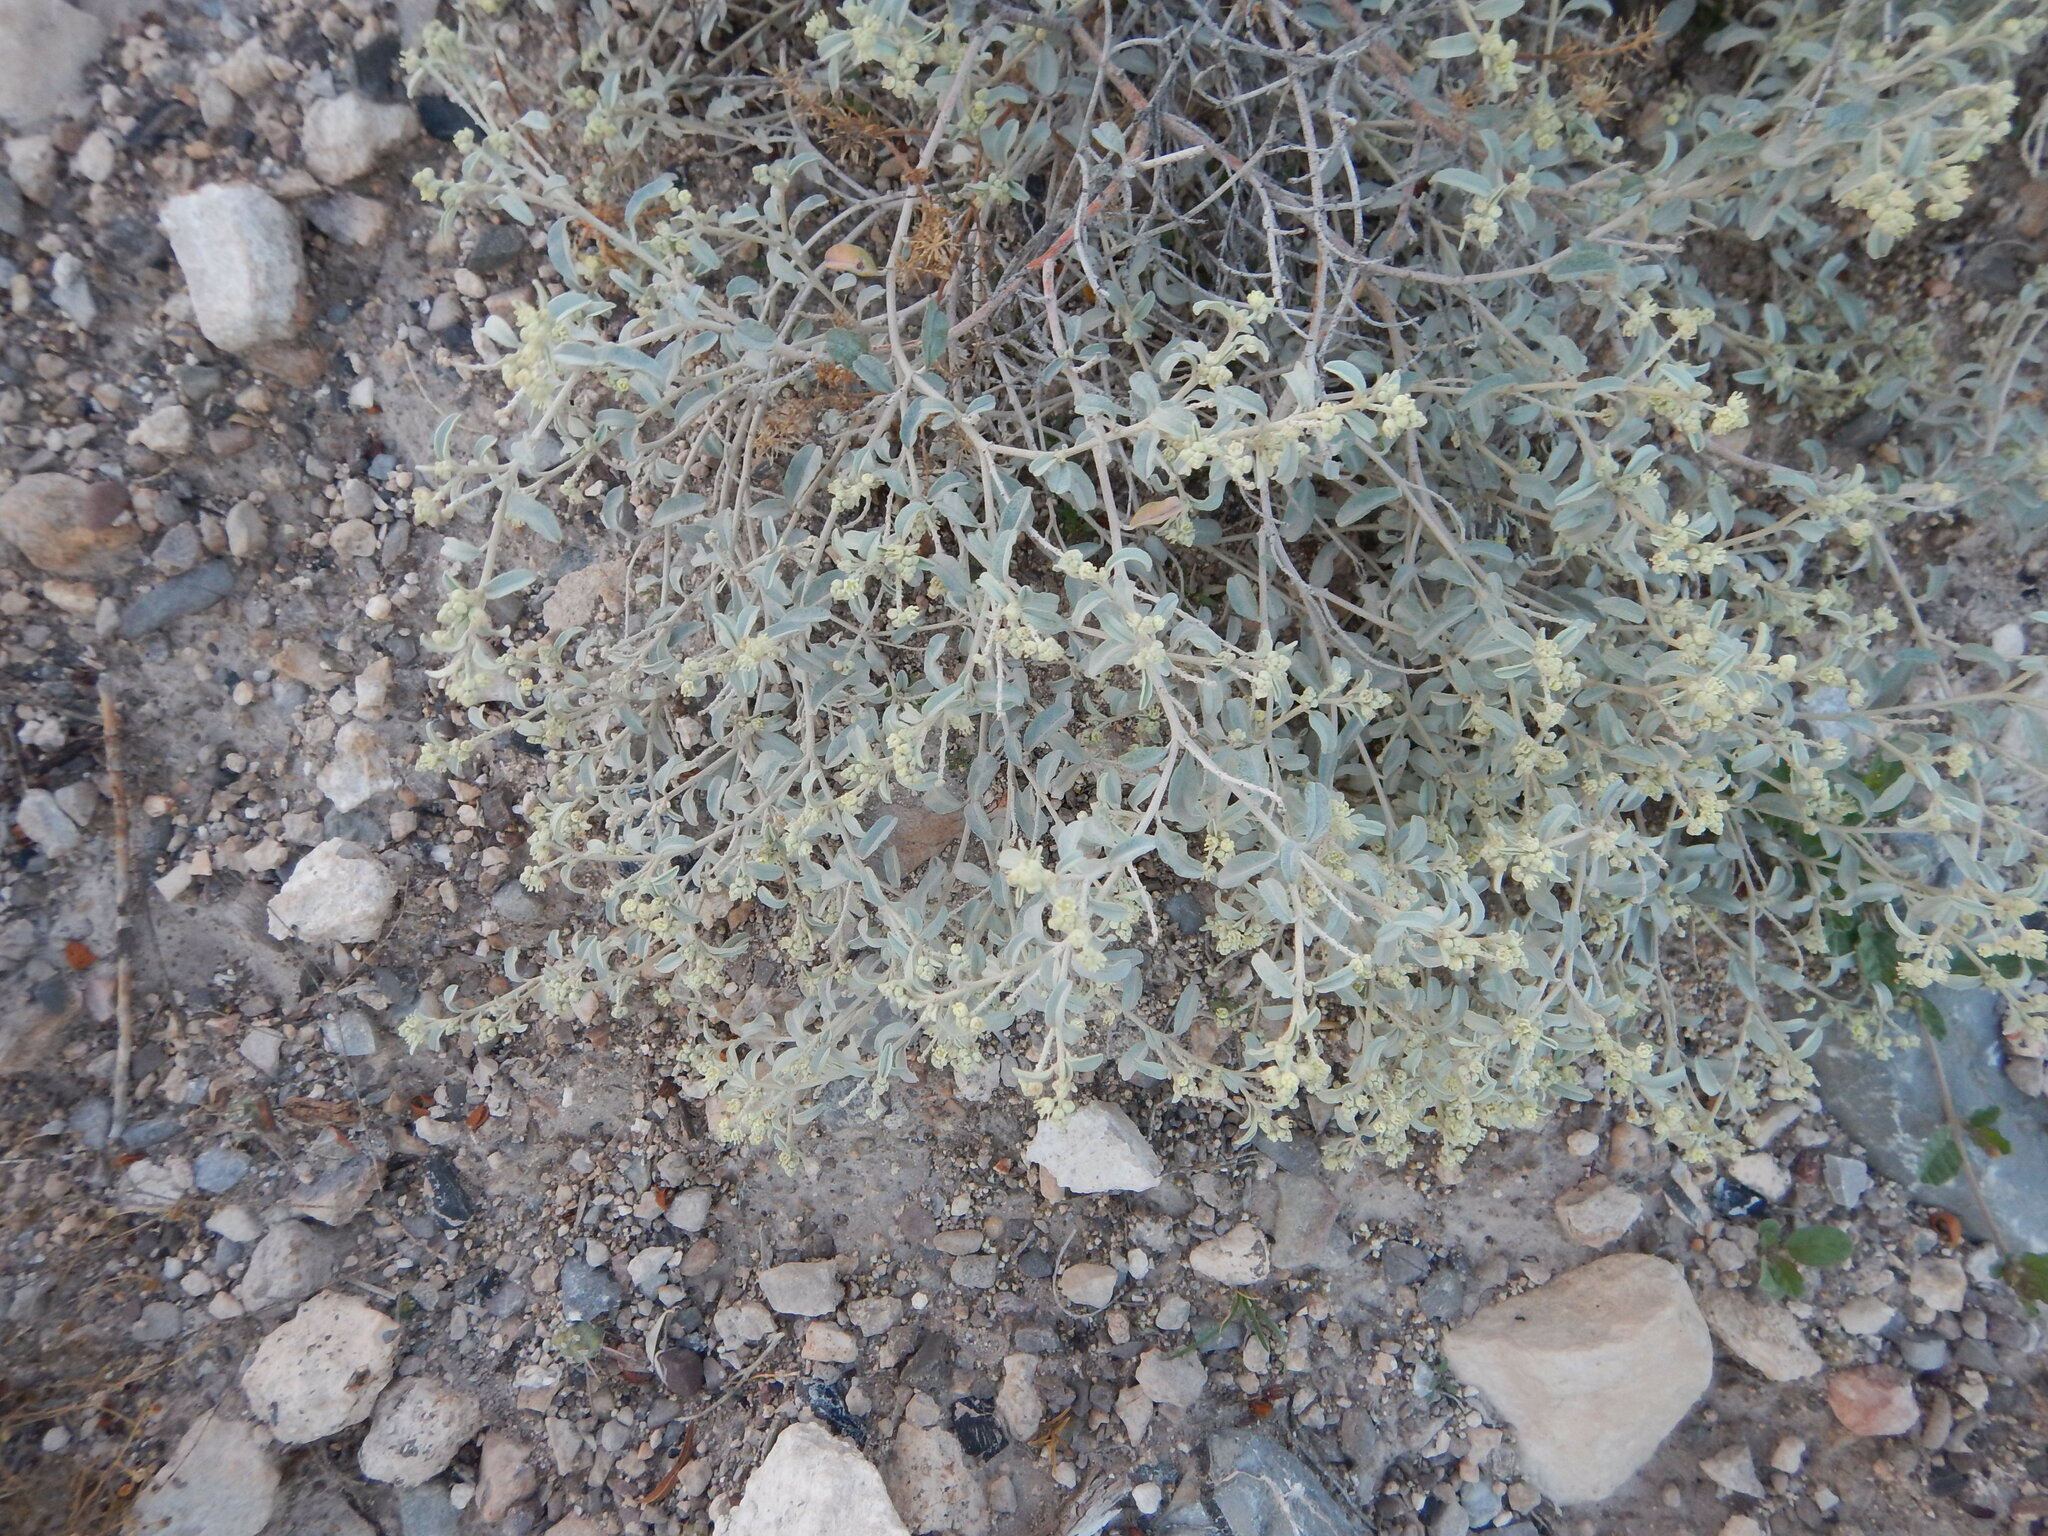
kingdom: Plantae
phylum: Tracheophyta
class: Magnoliopsida
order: Caryophyllales
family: Amaranthaceae
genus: Atriplex
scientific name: Atriplex canescens
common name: Four-wing saltbush
